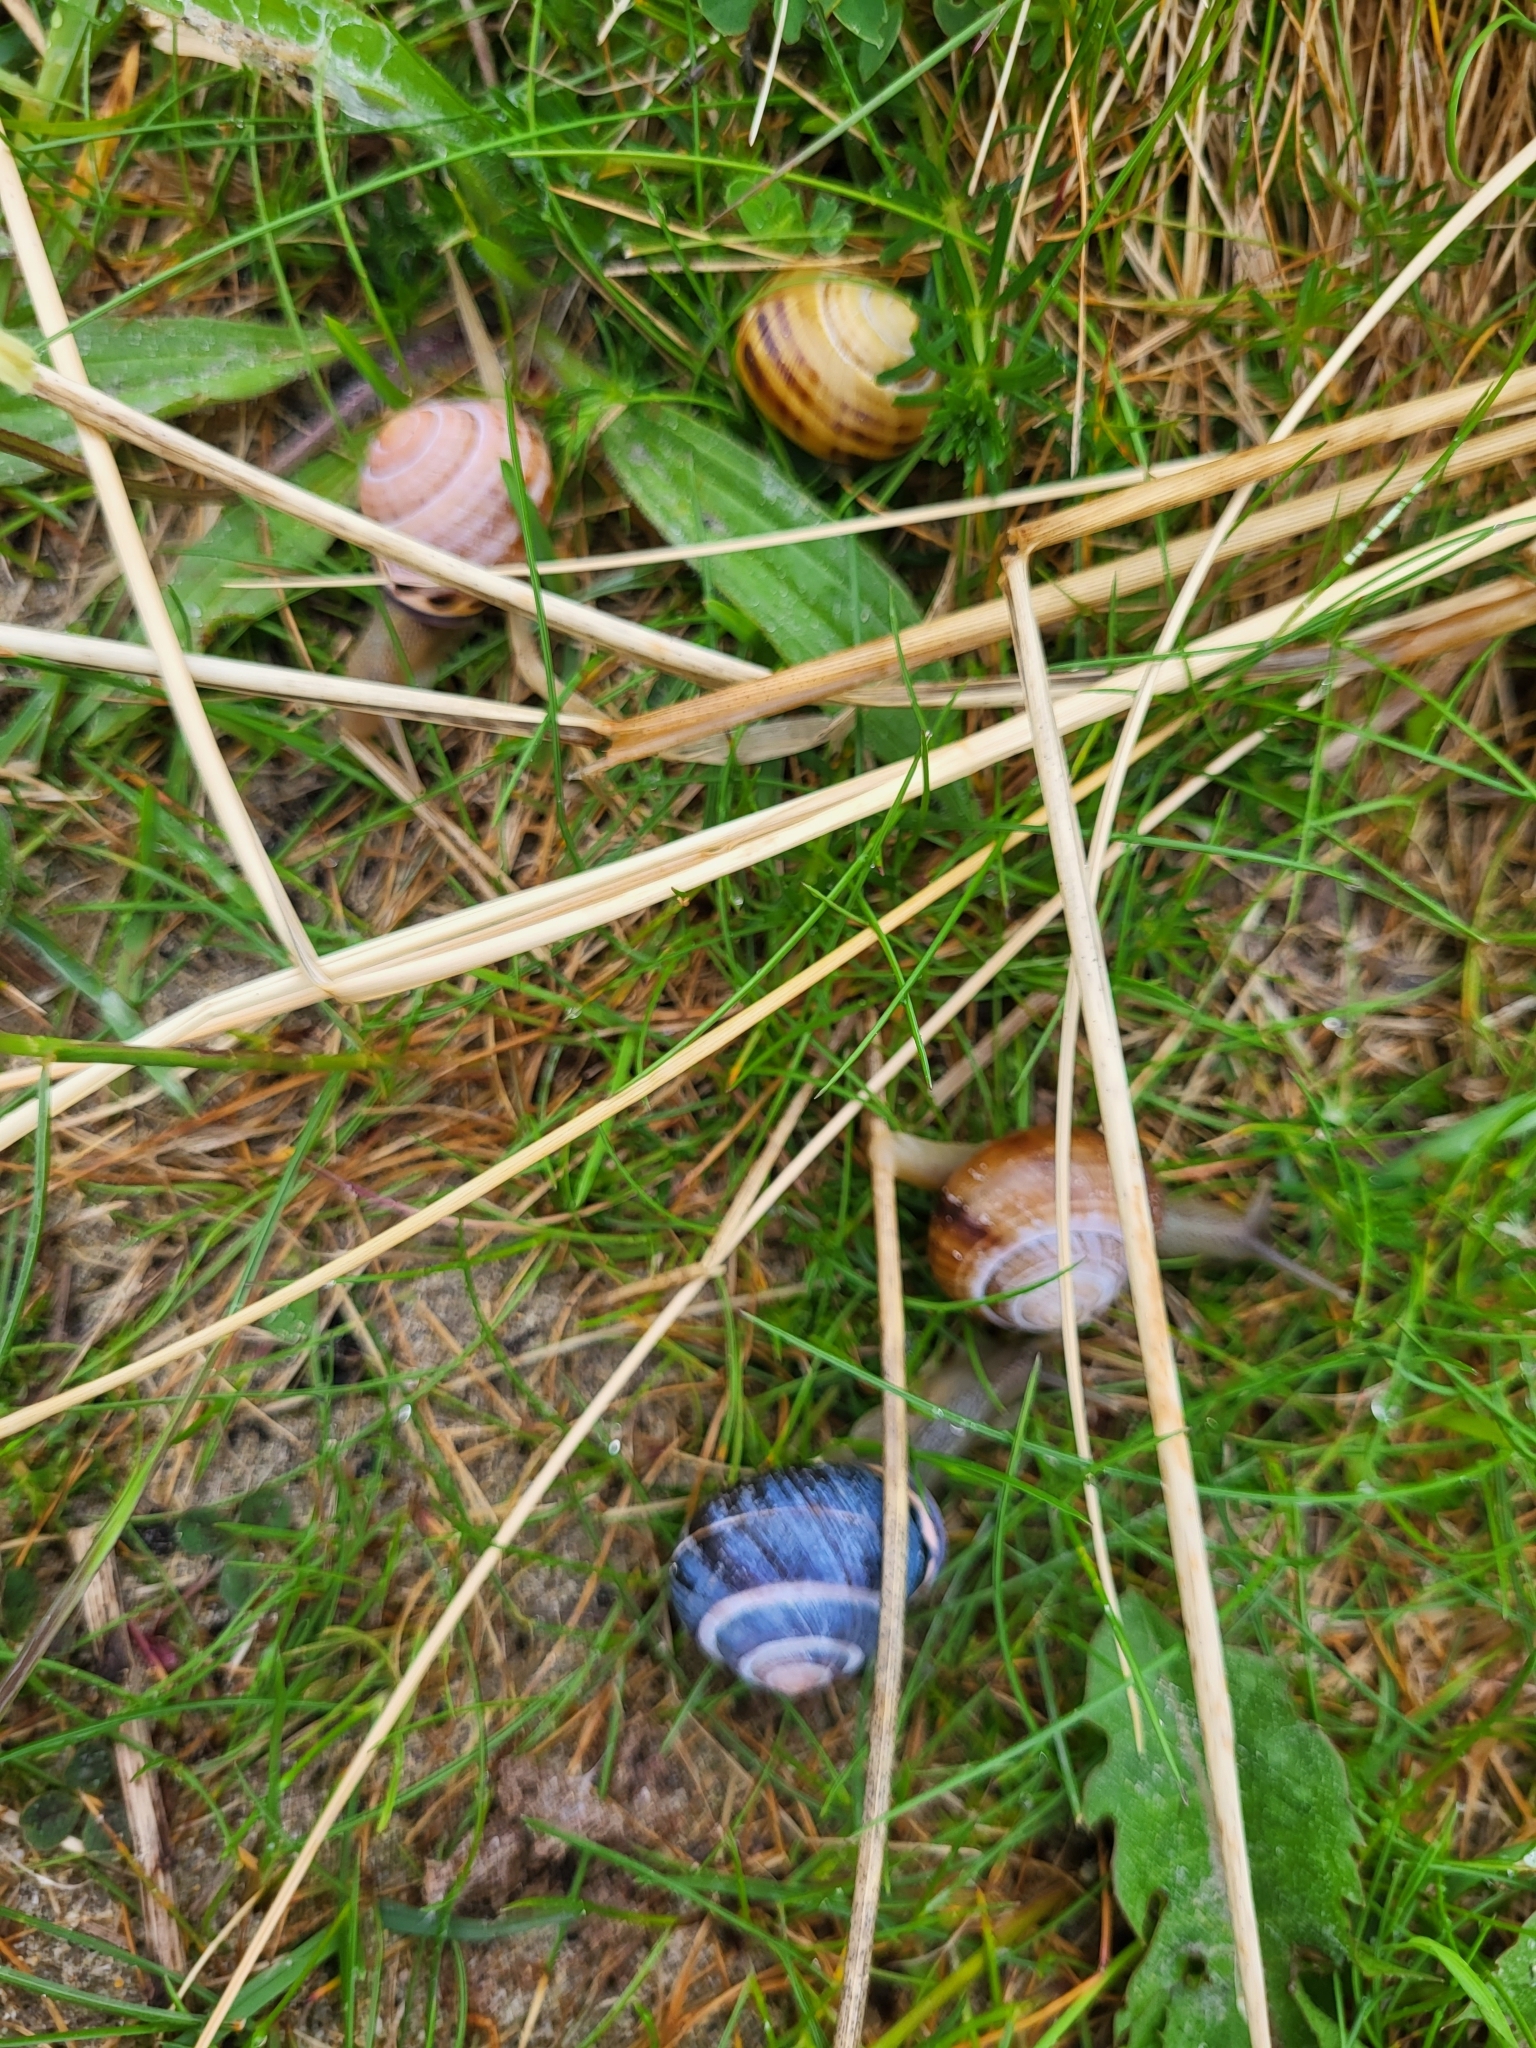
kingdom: Animalia
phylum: Mollusca
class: Gastropoda
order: Stylommatophora
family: Helicidae
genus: Cepaea
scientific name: Cepaea nemoralis
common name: Grovesnail
